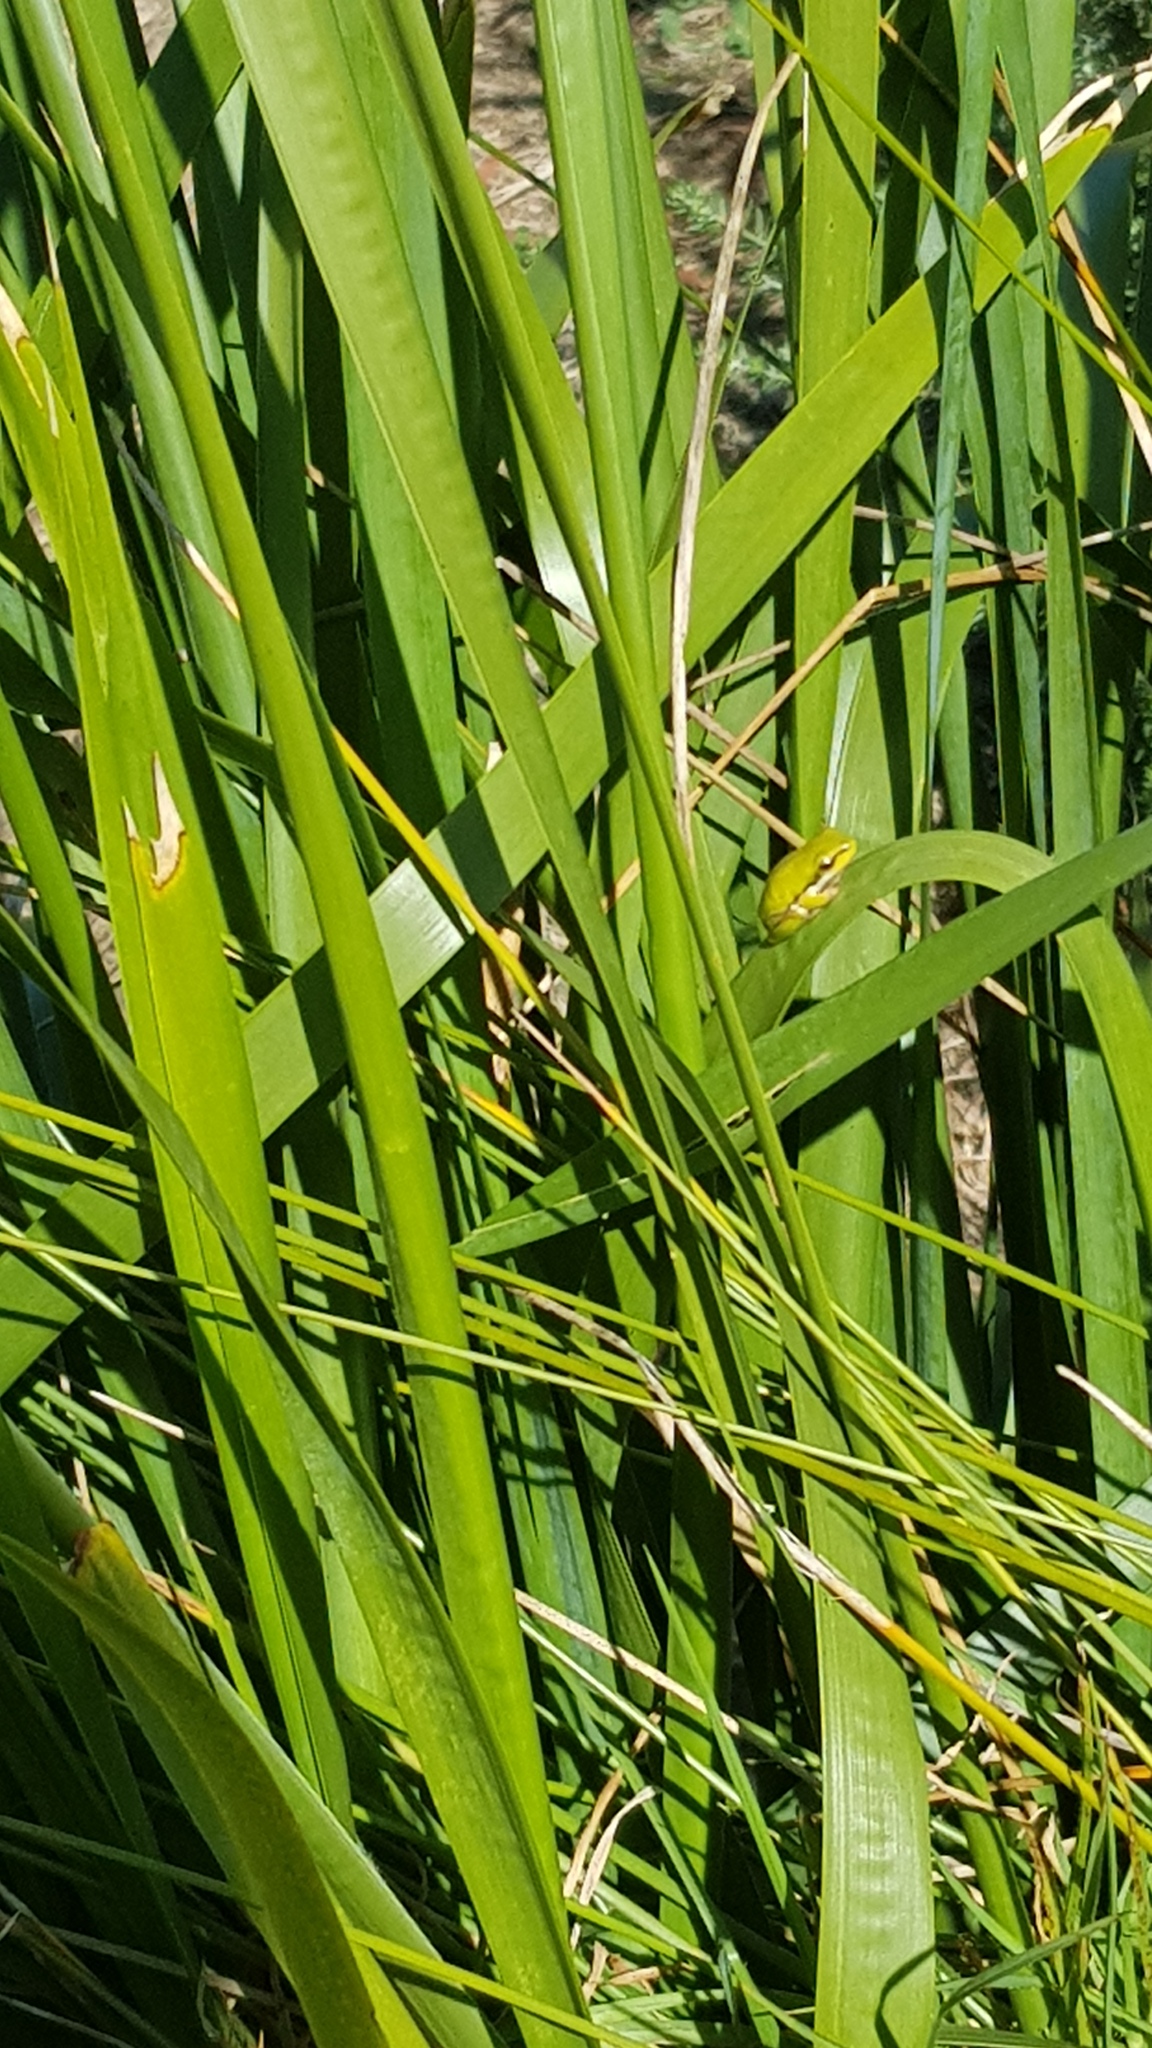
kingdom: Animalia
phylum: Chordata
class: Amphibia
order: Anura
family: Pelodryadidae
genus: Litoria
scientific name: Litoria fallax
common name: Eastern dwarf treefrog
